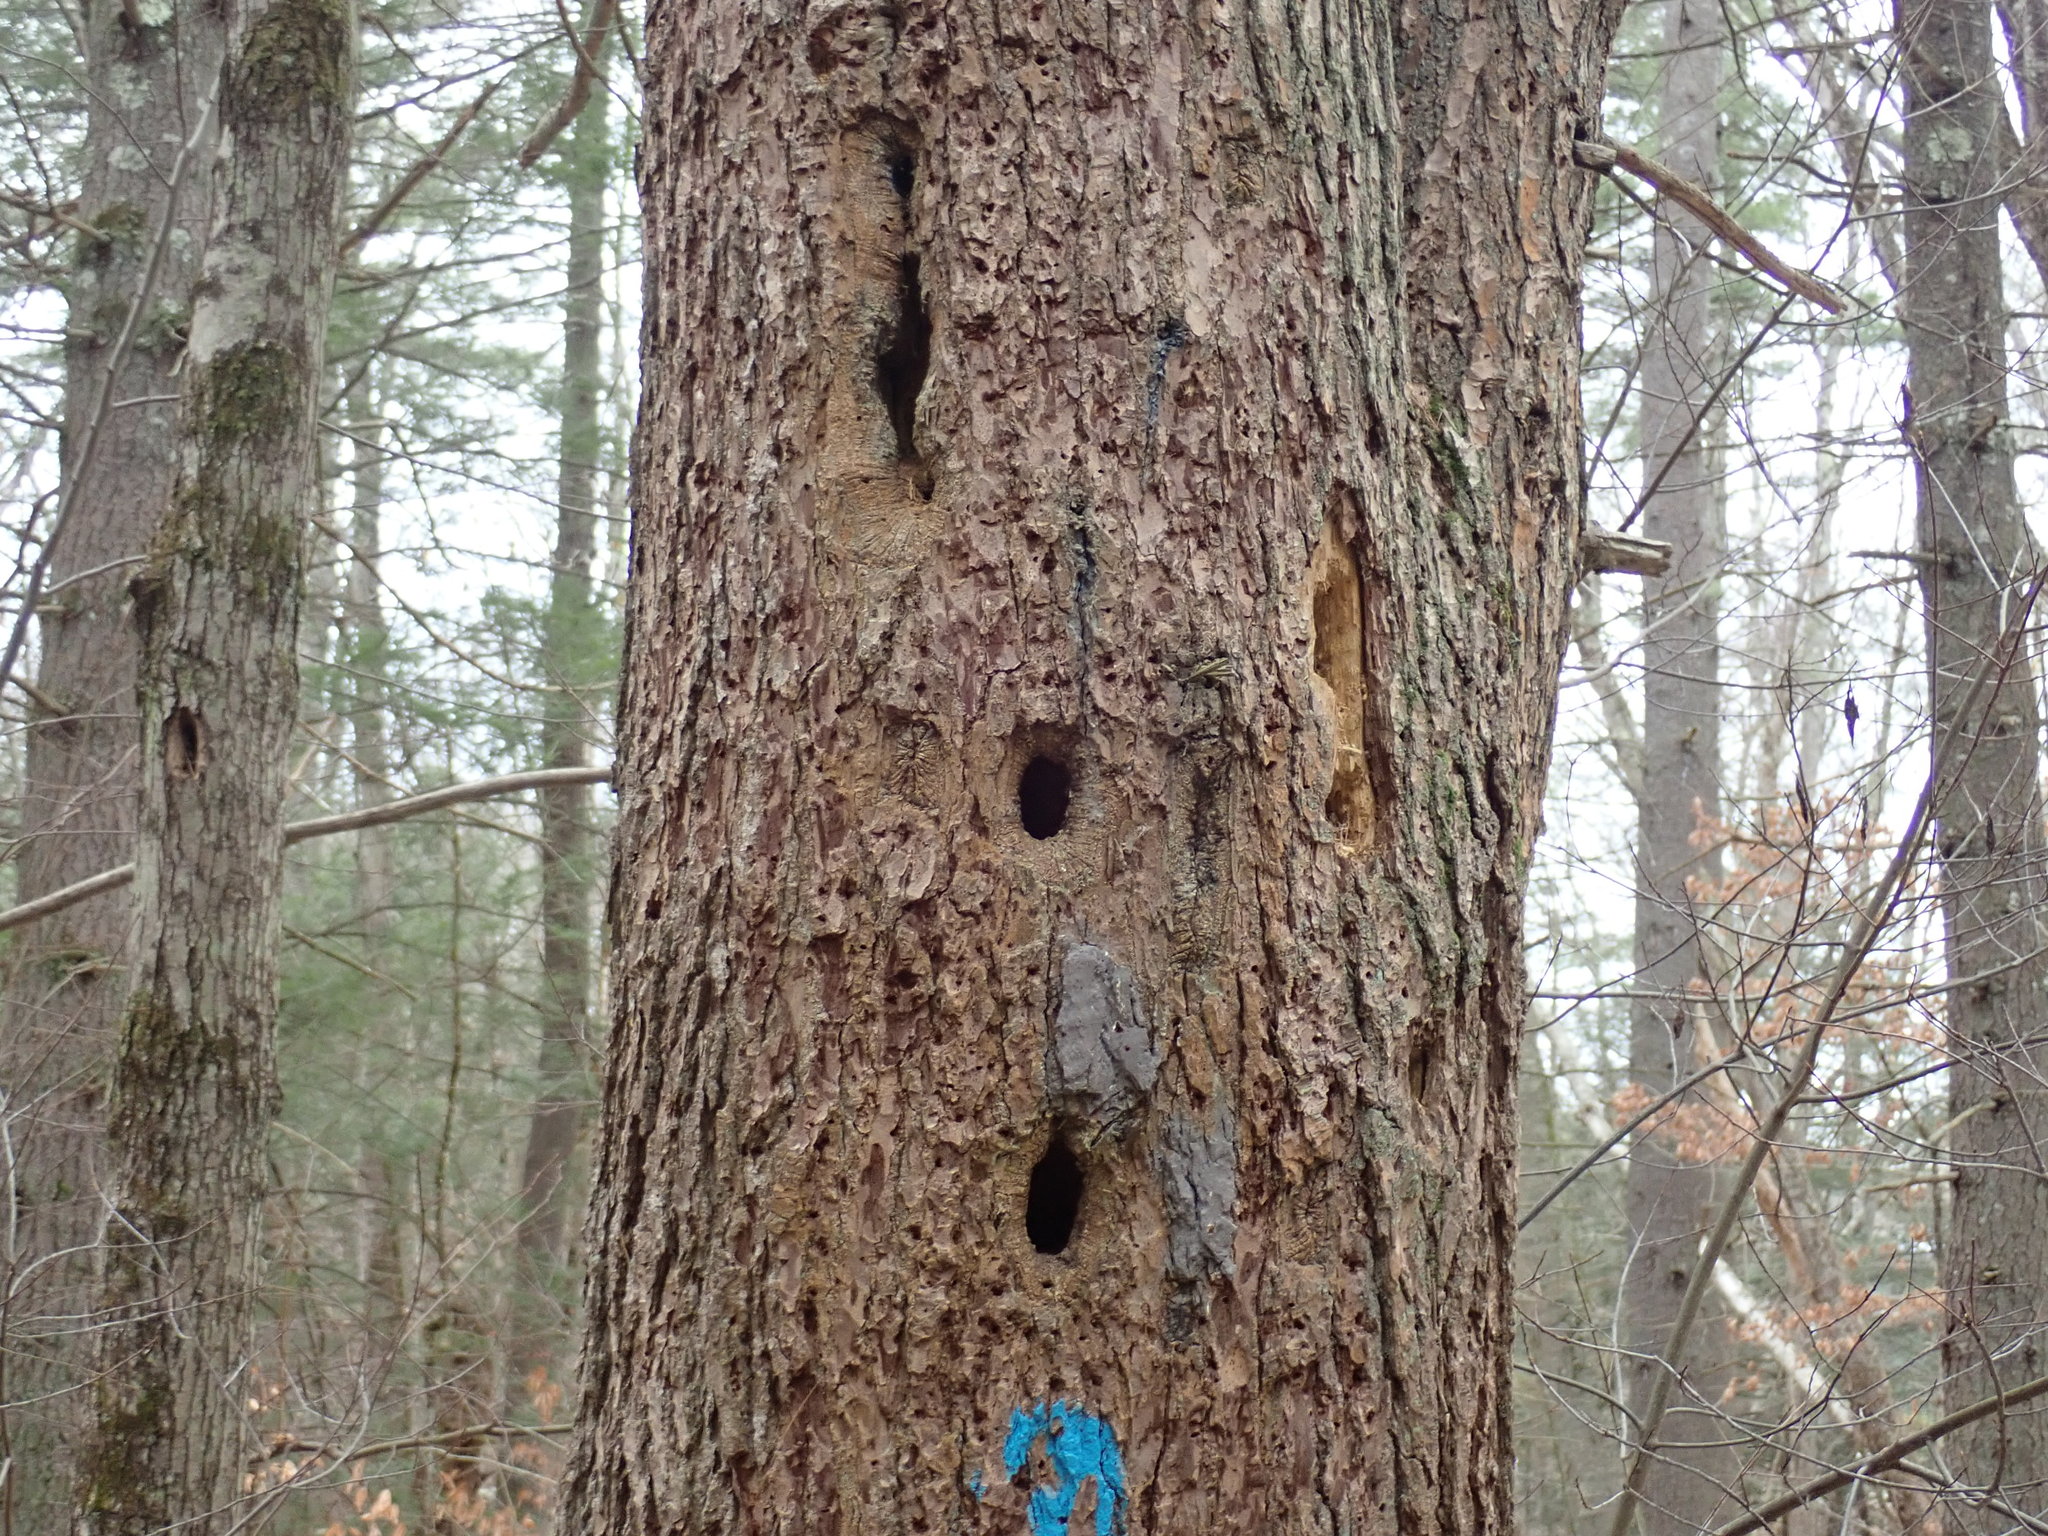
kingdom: Animalia
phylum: Chordata
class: Aves
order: Piciformes
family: Picidae
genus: Dryocopus
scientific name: Dryocopus pileatus
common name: Pileated woodpecker
